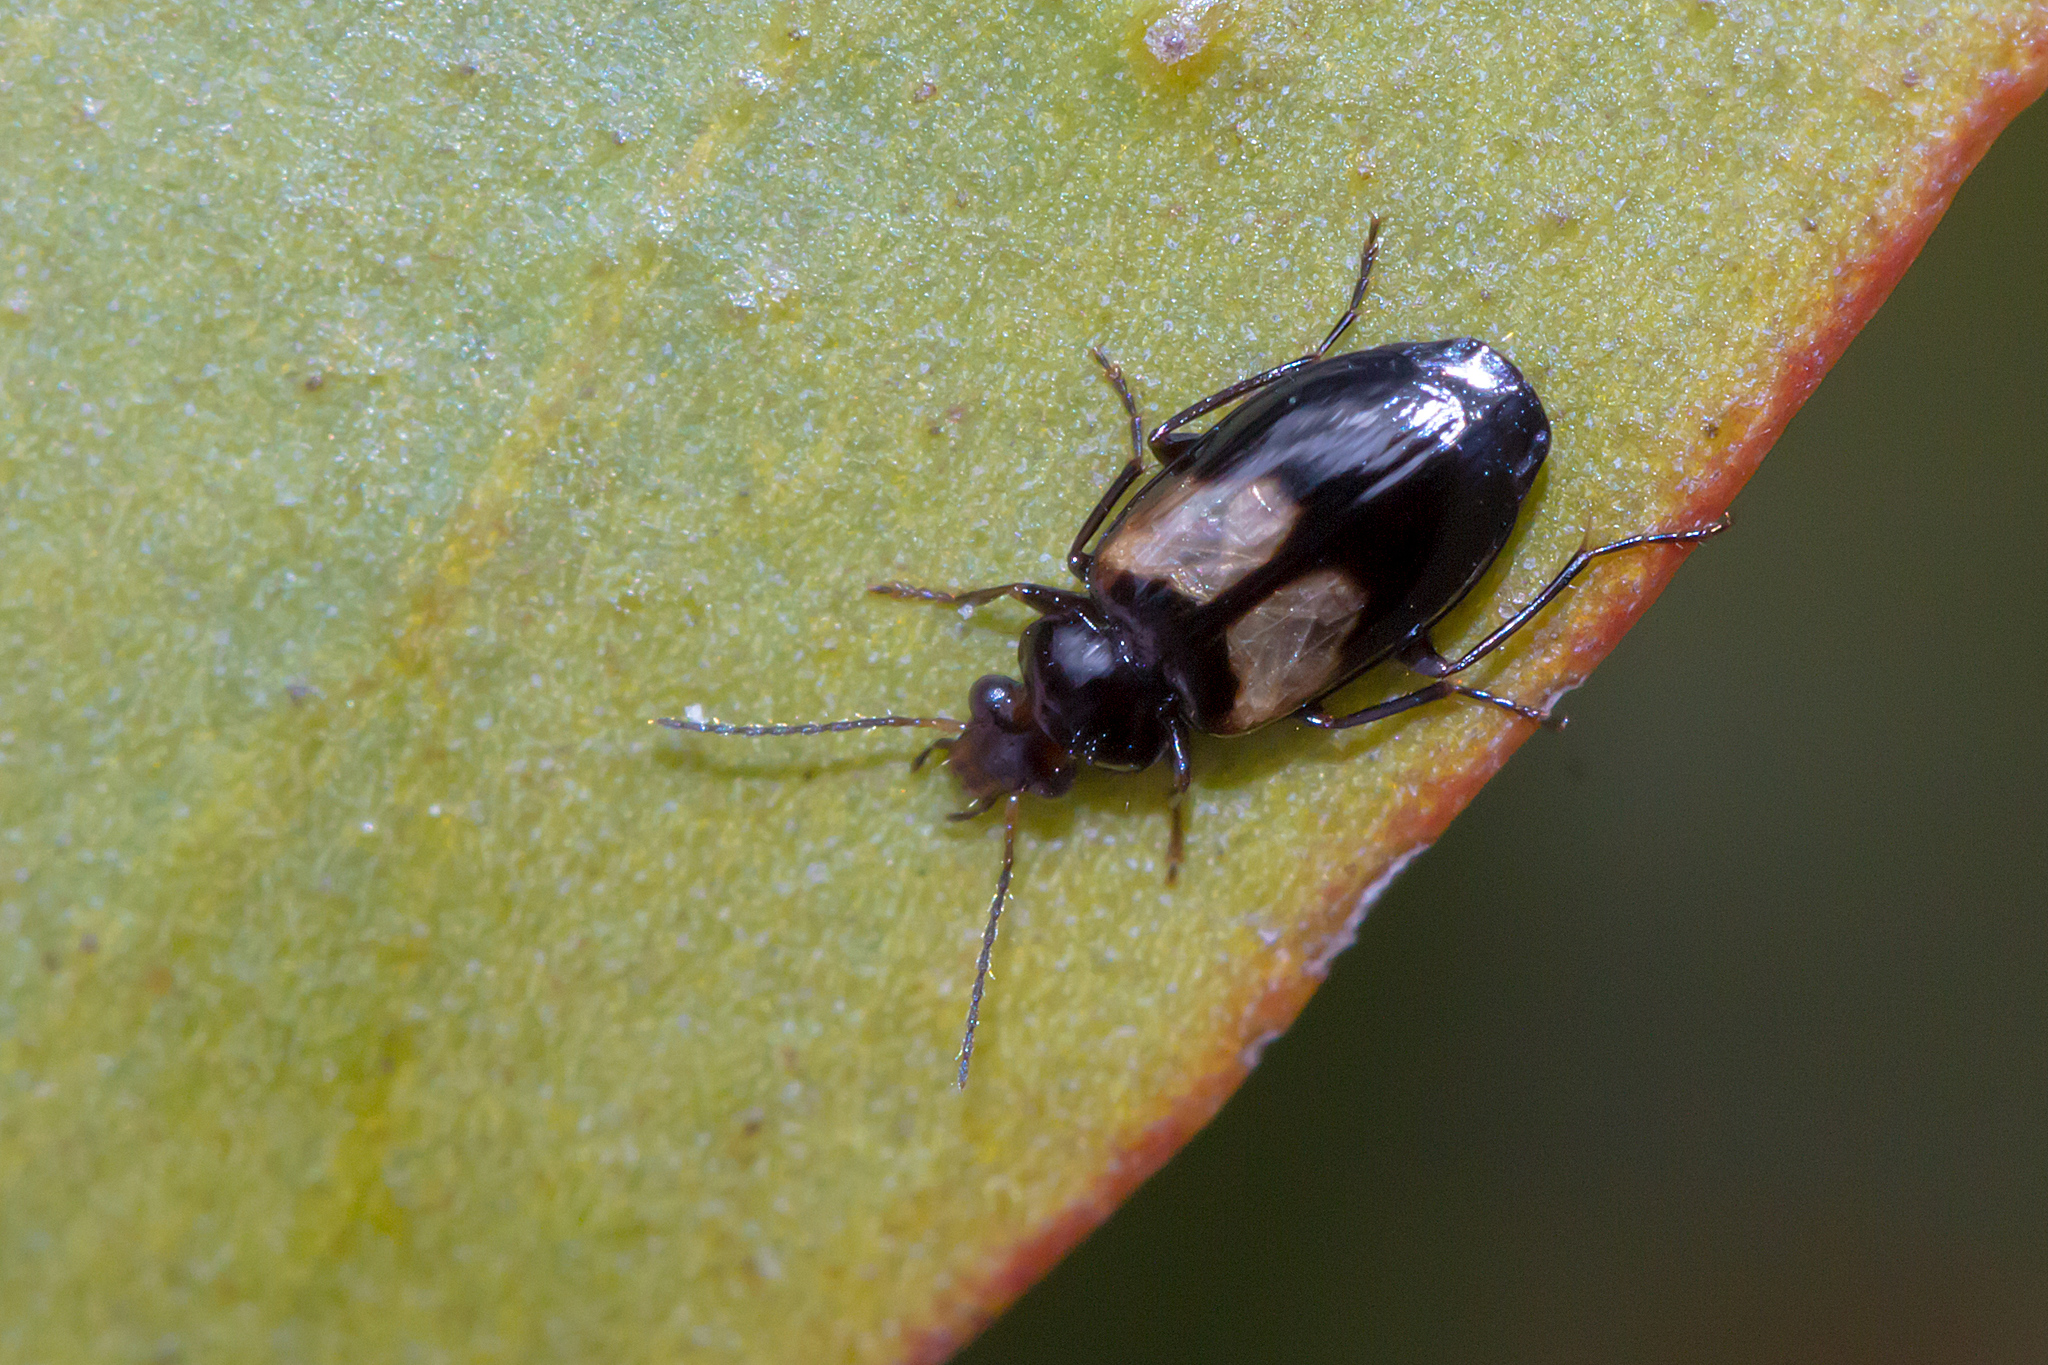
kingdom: Animalia
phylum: Arthropoda
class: Insecta
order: Coleoptera
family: Carabidae
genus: Sarothrocrepis
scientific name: Sarothrocrepis civica
